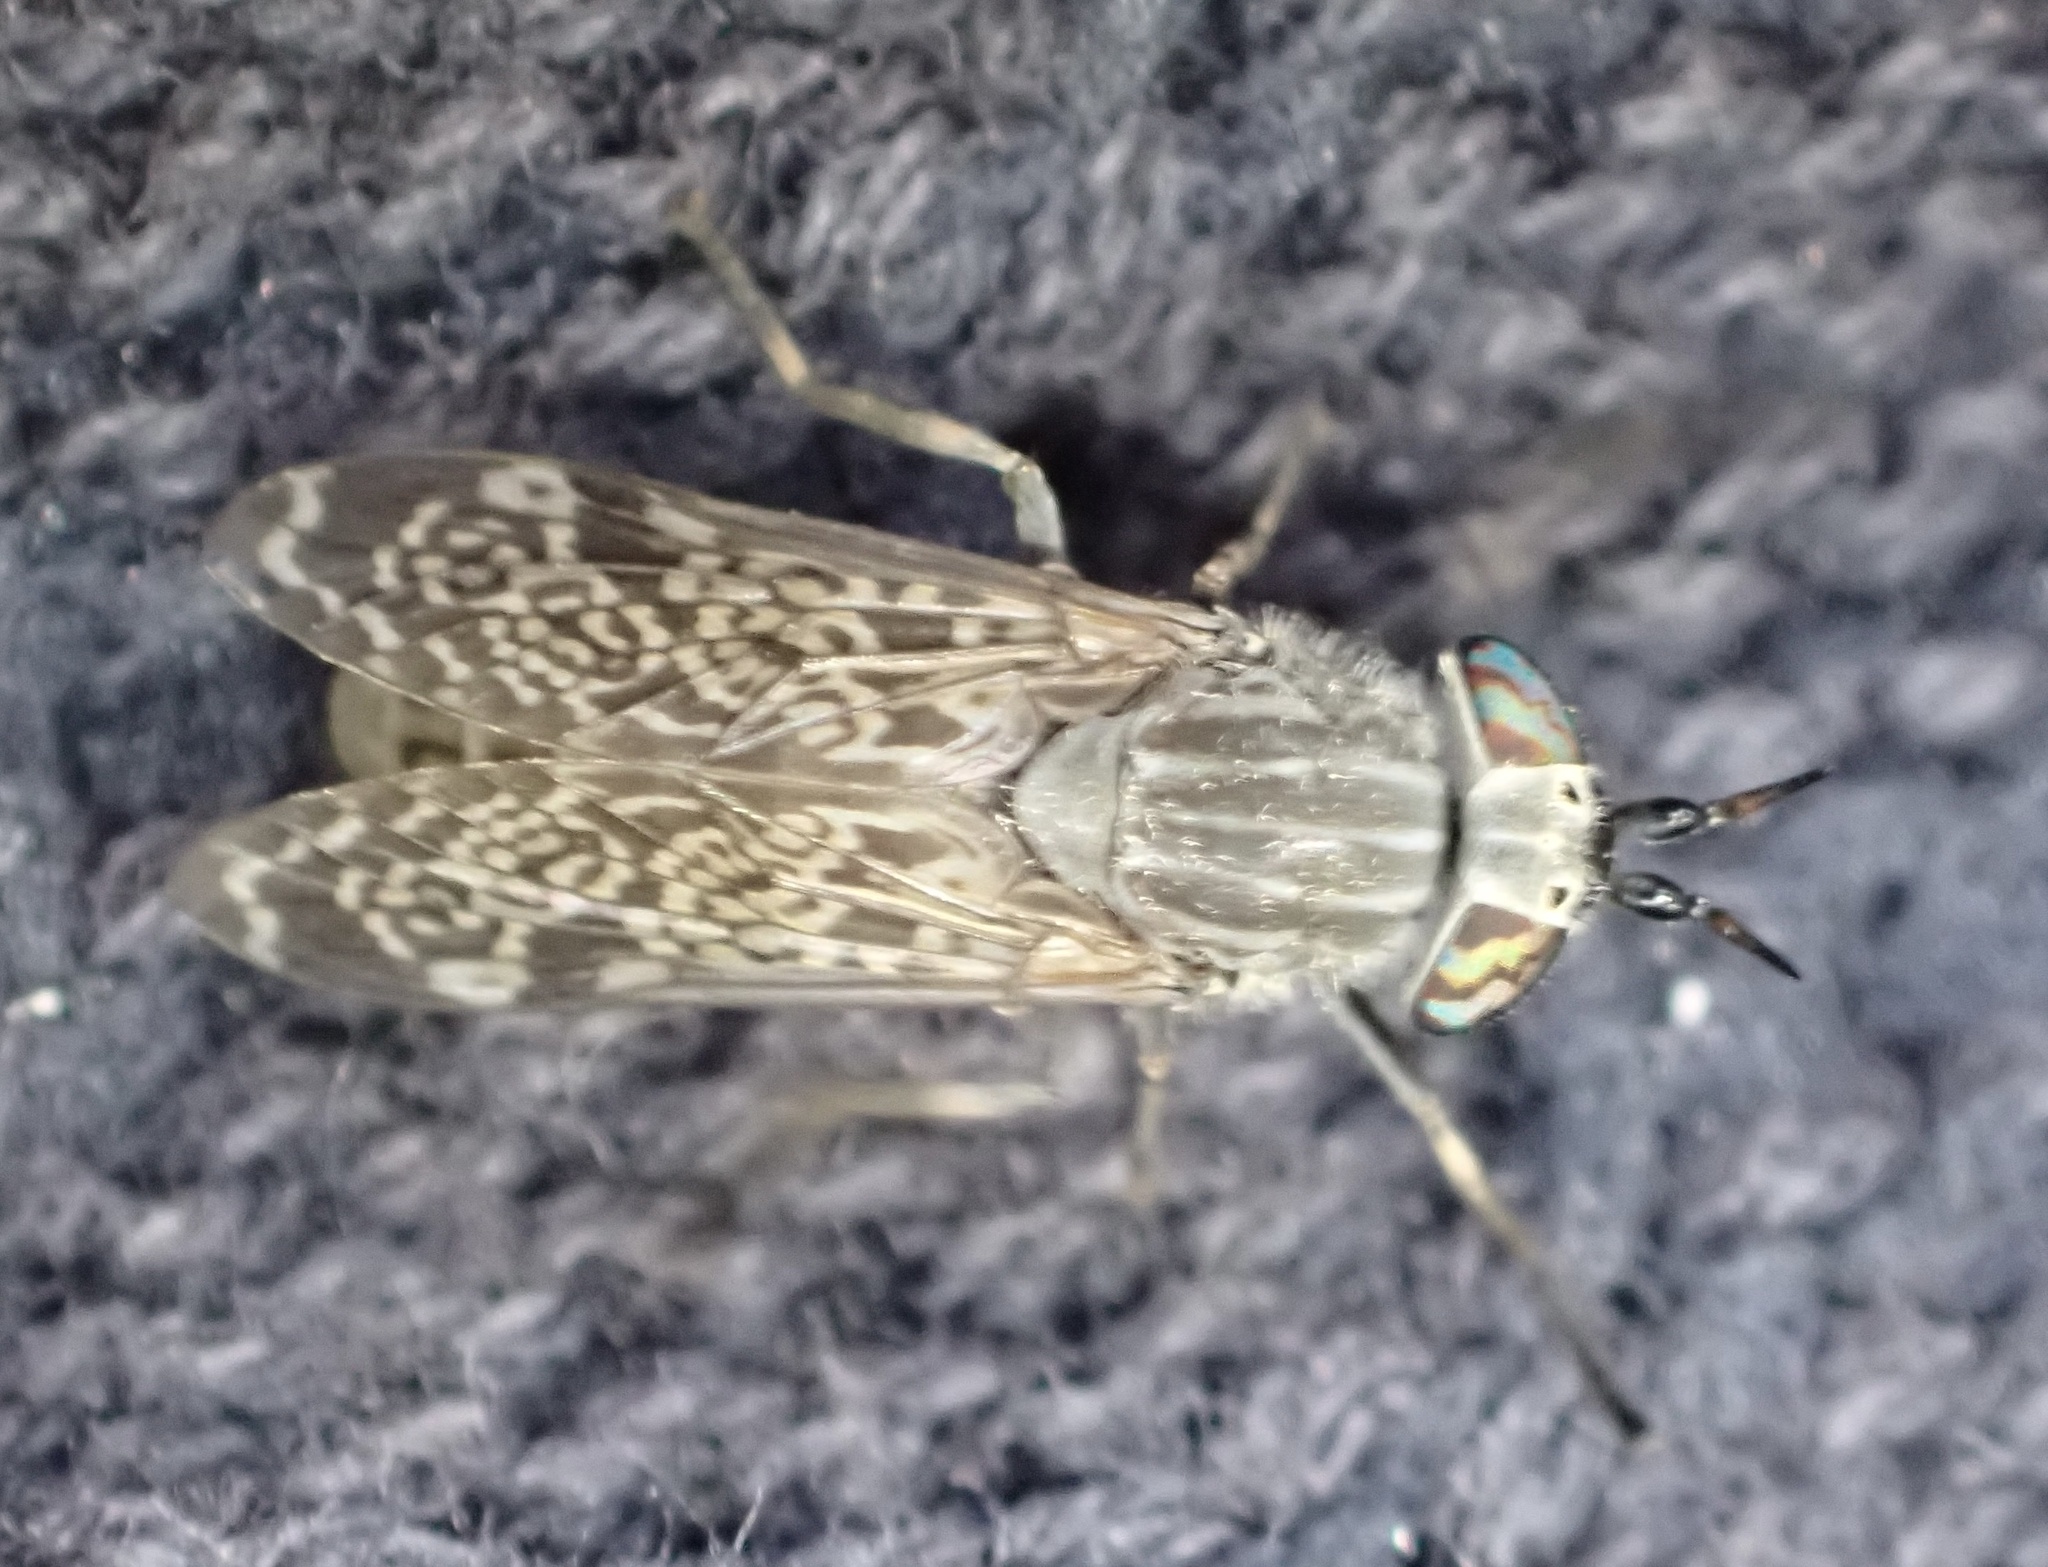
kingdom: Animalia
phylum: Arthropoda
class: Insecta
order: Diptera
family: Tabanidae
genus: Haematopota
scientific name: Haematopota pluvialis
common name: Common horse fly
